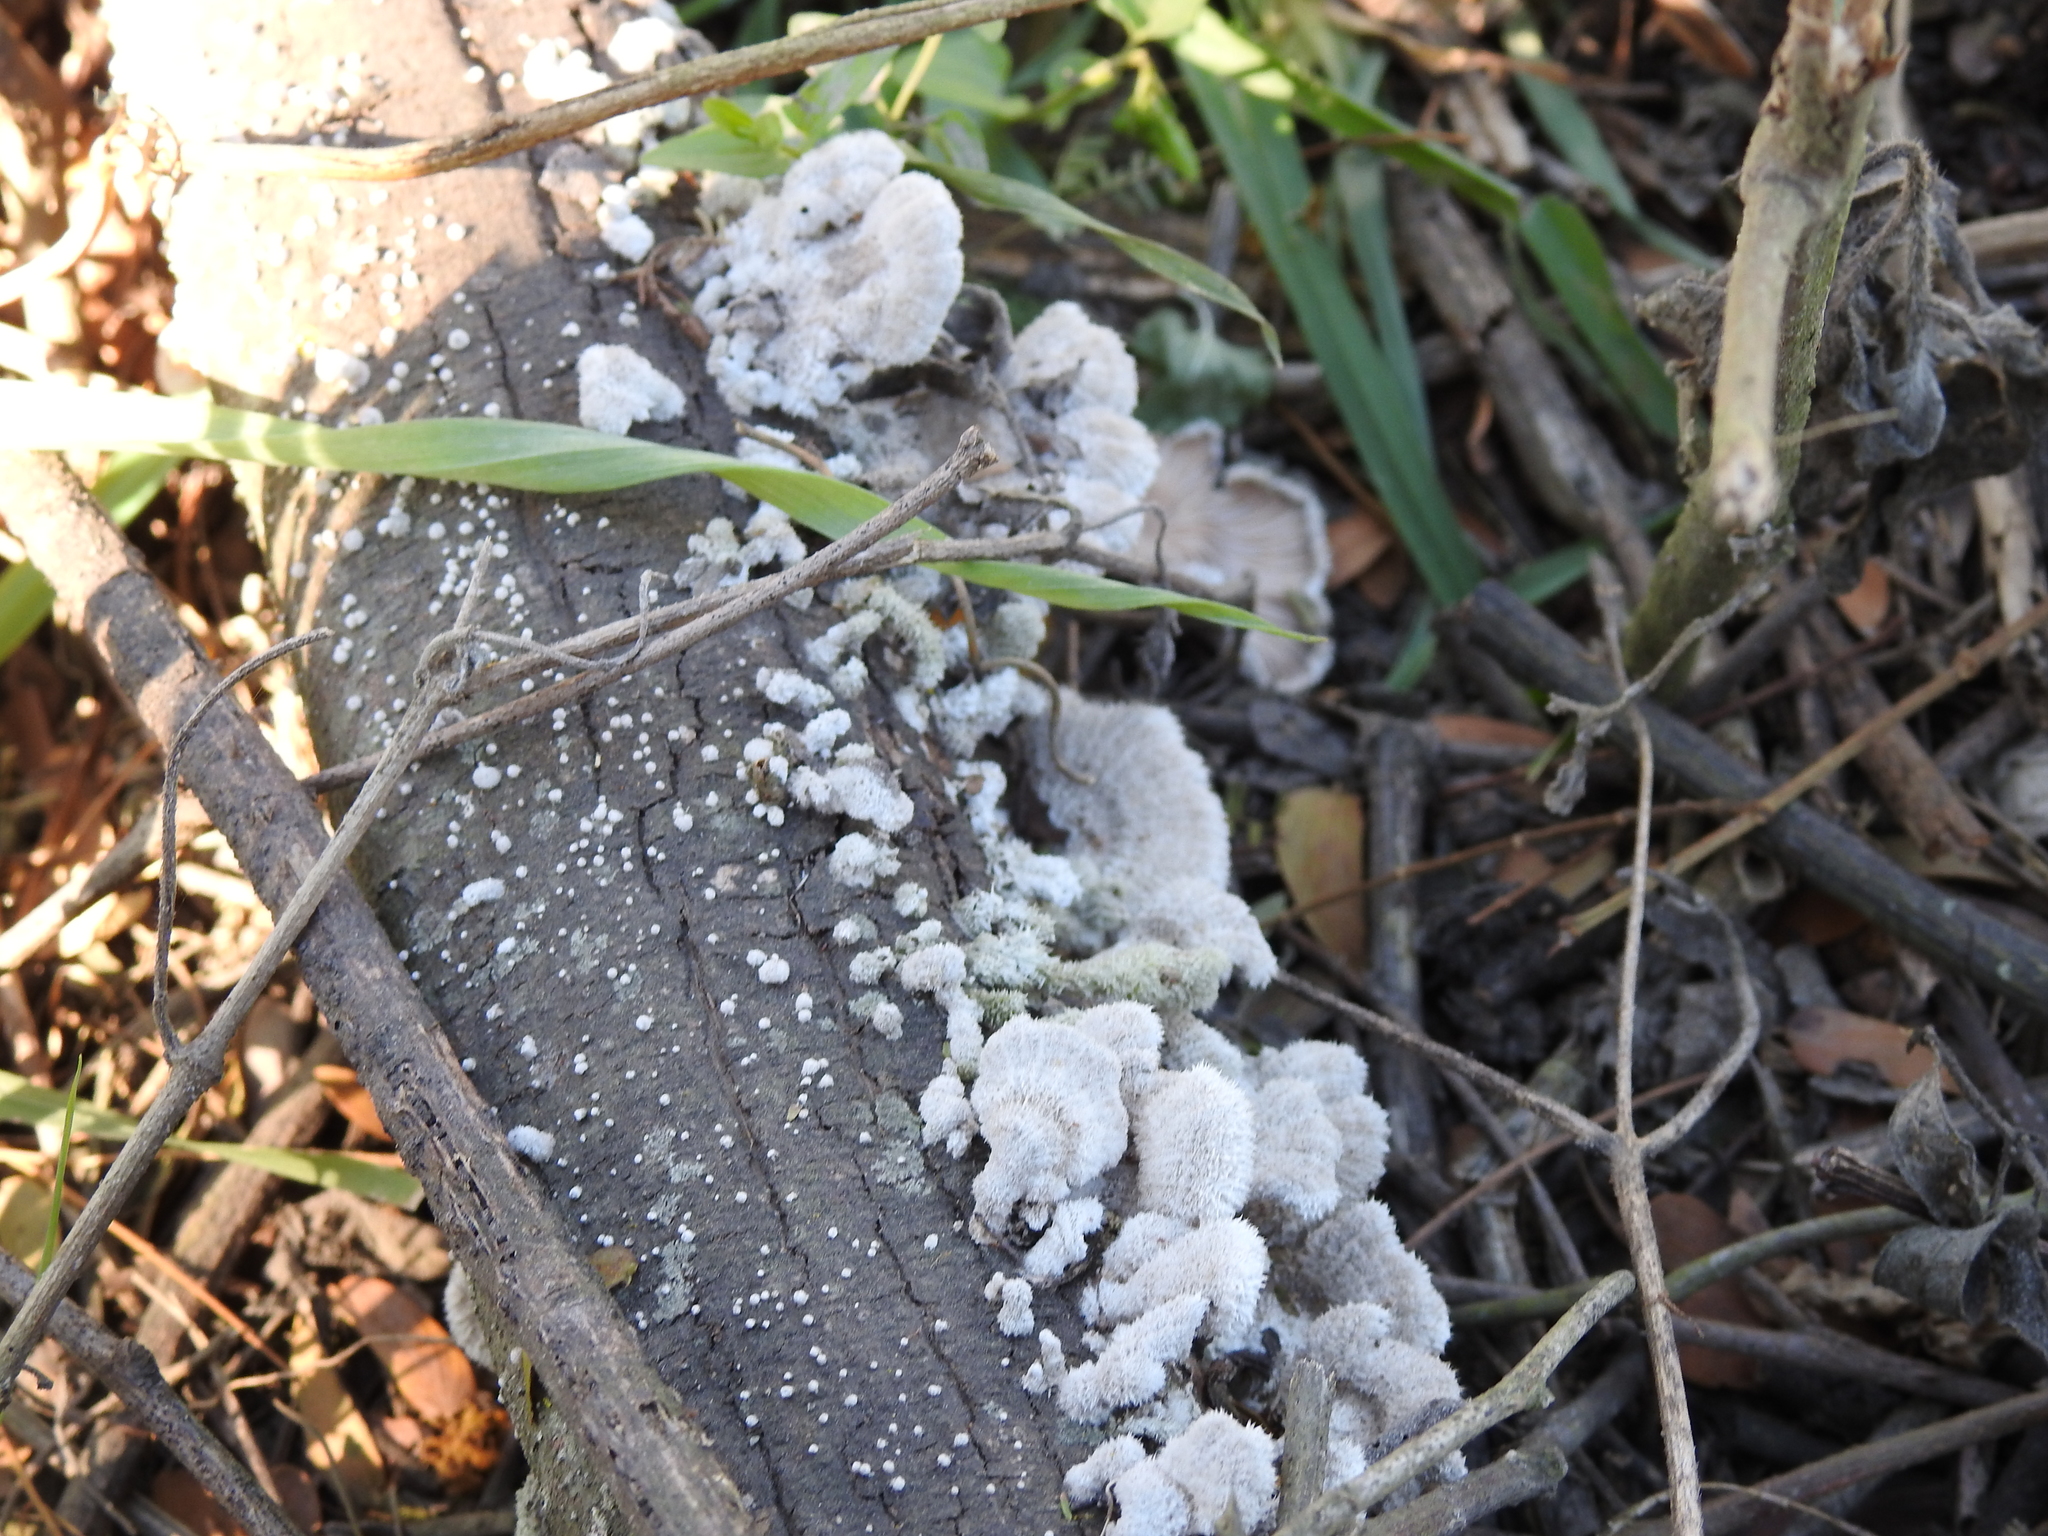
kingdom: Fungi
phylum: Basidiomycota
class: Agaricomycetes
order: Agaricales
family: Schizophyllaceae
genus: Schizophyllum
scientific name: Schizophyllum commune
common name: Common porecrust
